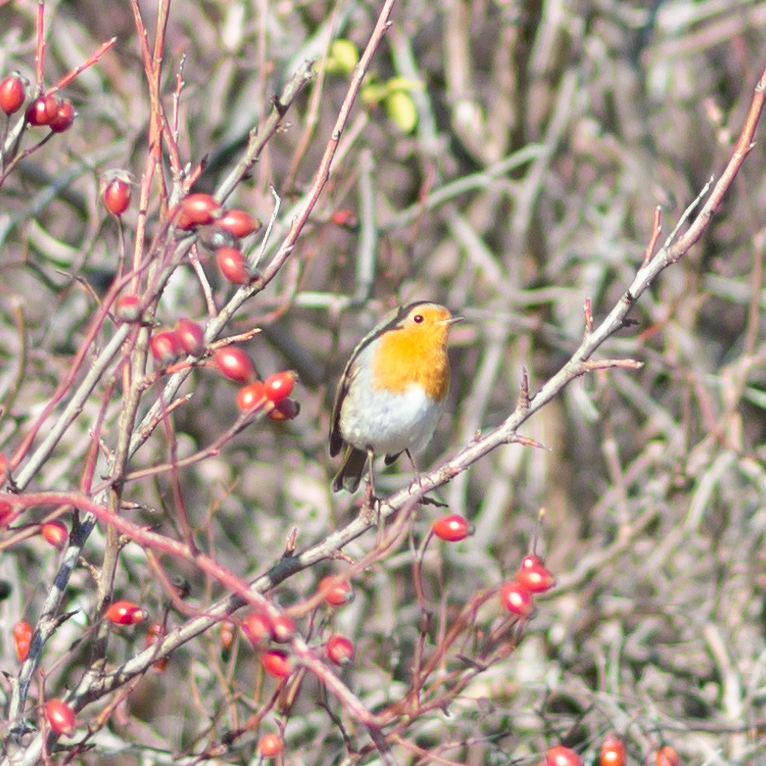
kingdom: Animalia
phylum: Chordata
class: Aves
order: Passeriformes
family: Muscicapidae
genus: Erithacus
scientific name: Erithacus rubecula
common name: European robin
